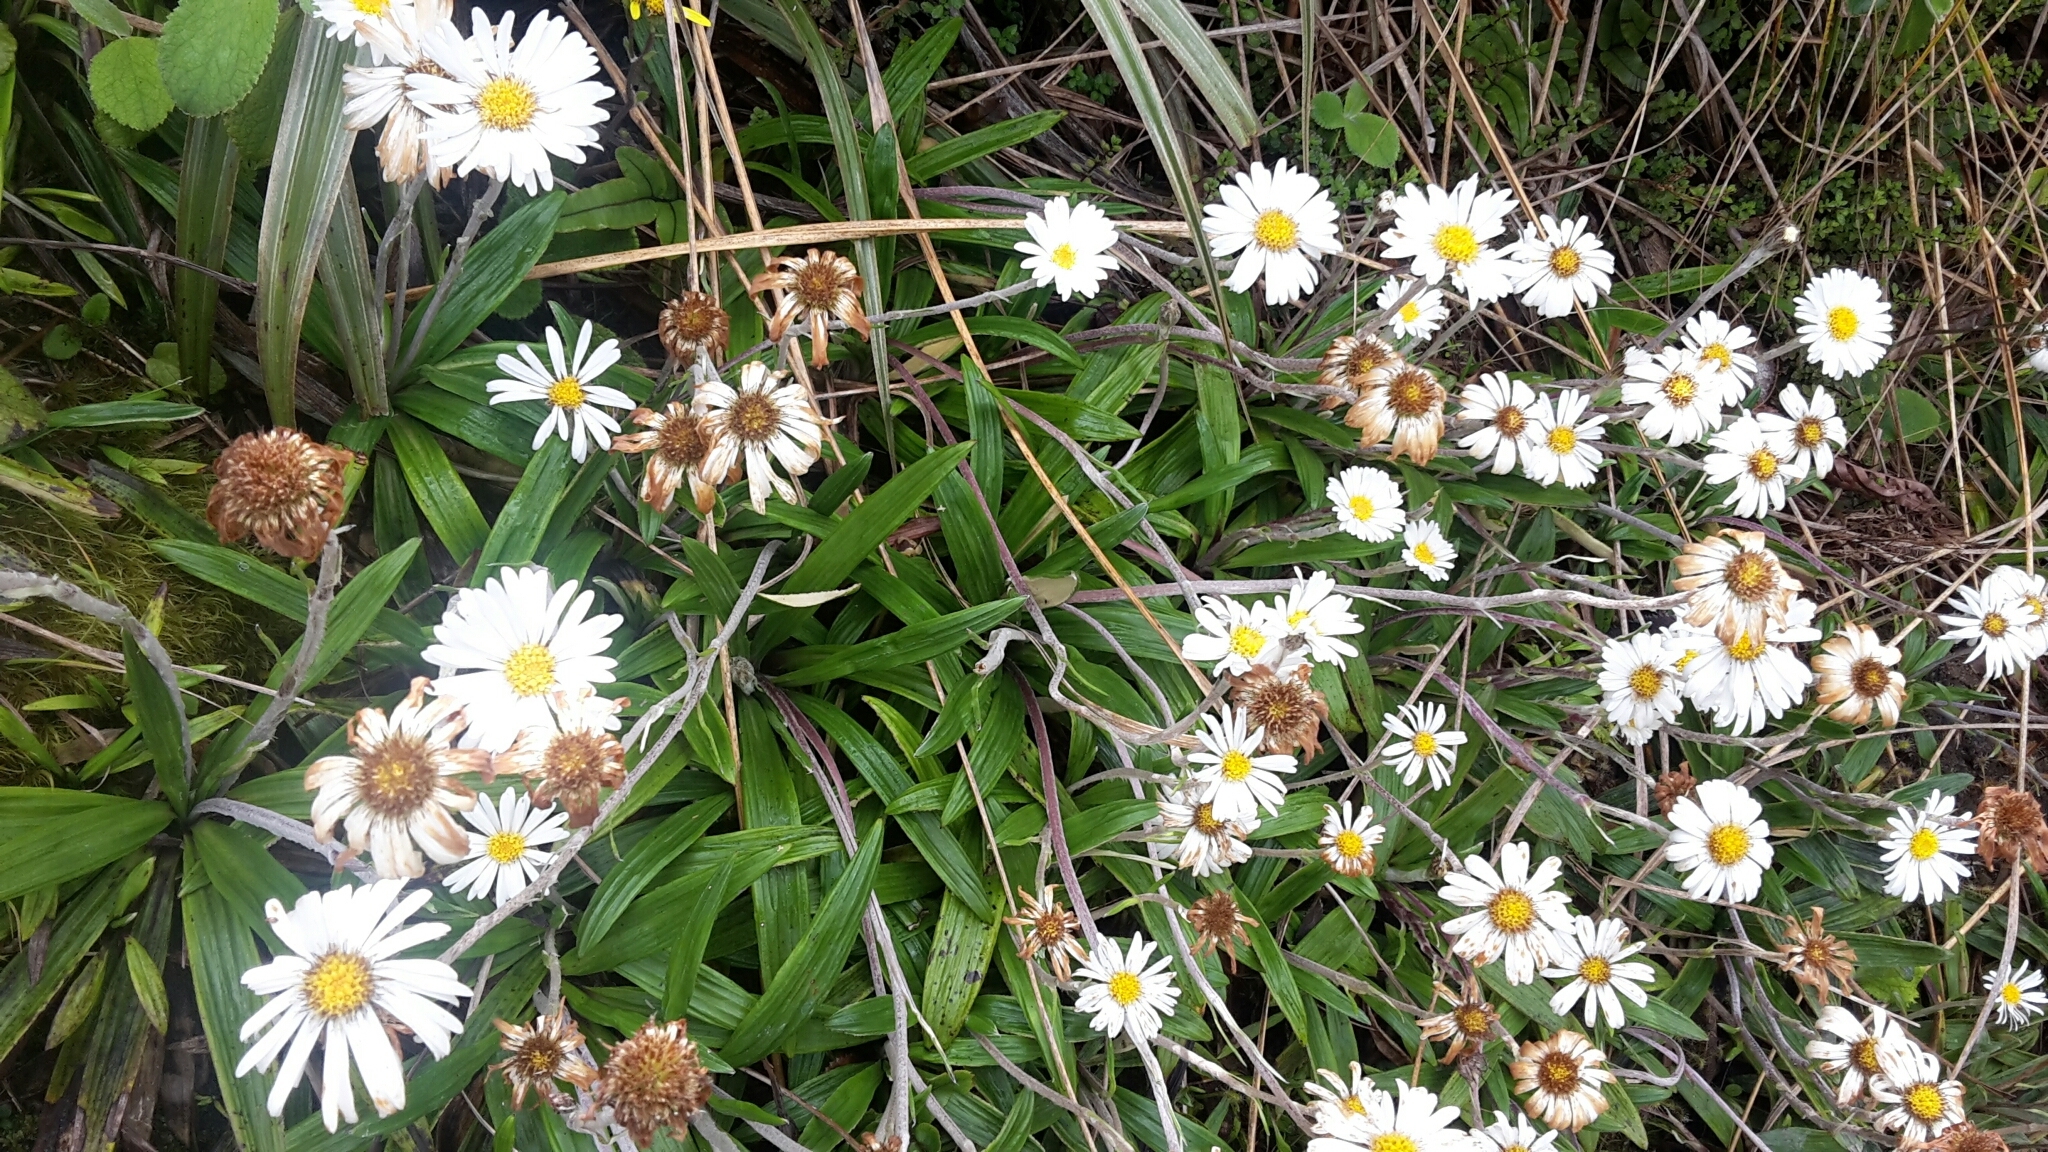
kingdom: Plantae
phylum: Tracheophyta
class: Magnoliopsida
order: Asterales
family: Asteraceae
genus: Celmisia
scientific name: Celmisia spectabilis
